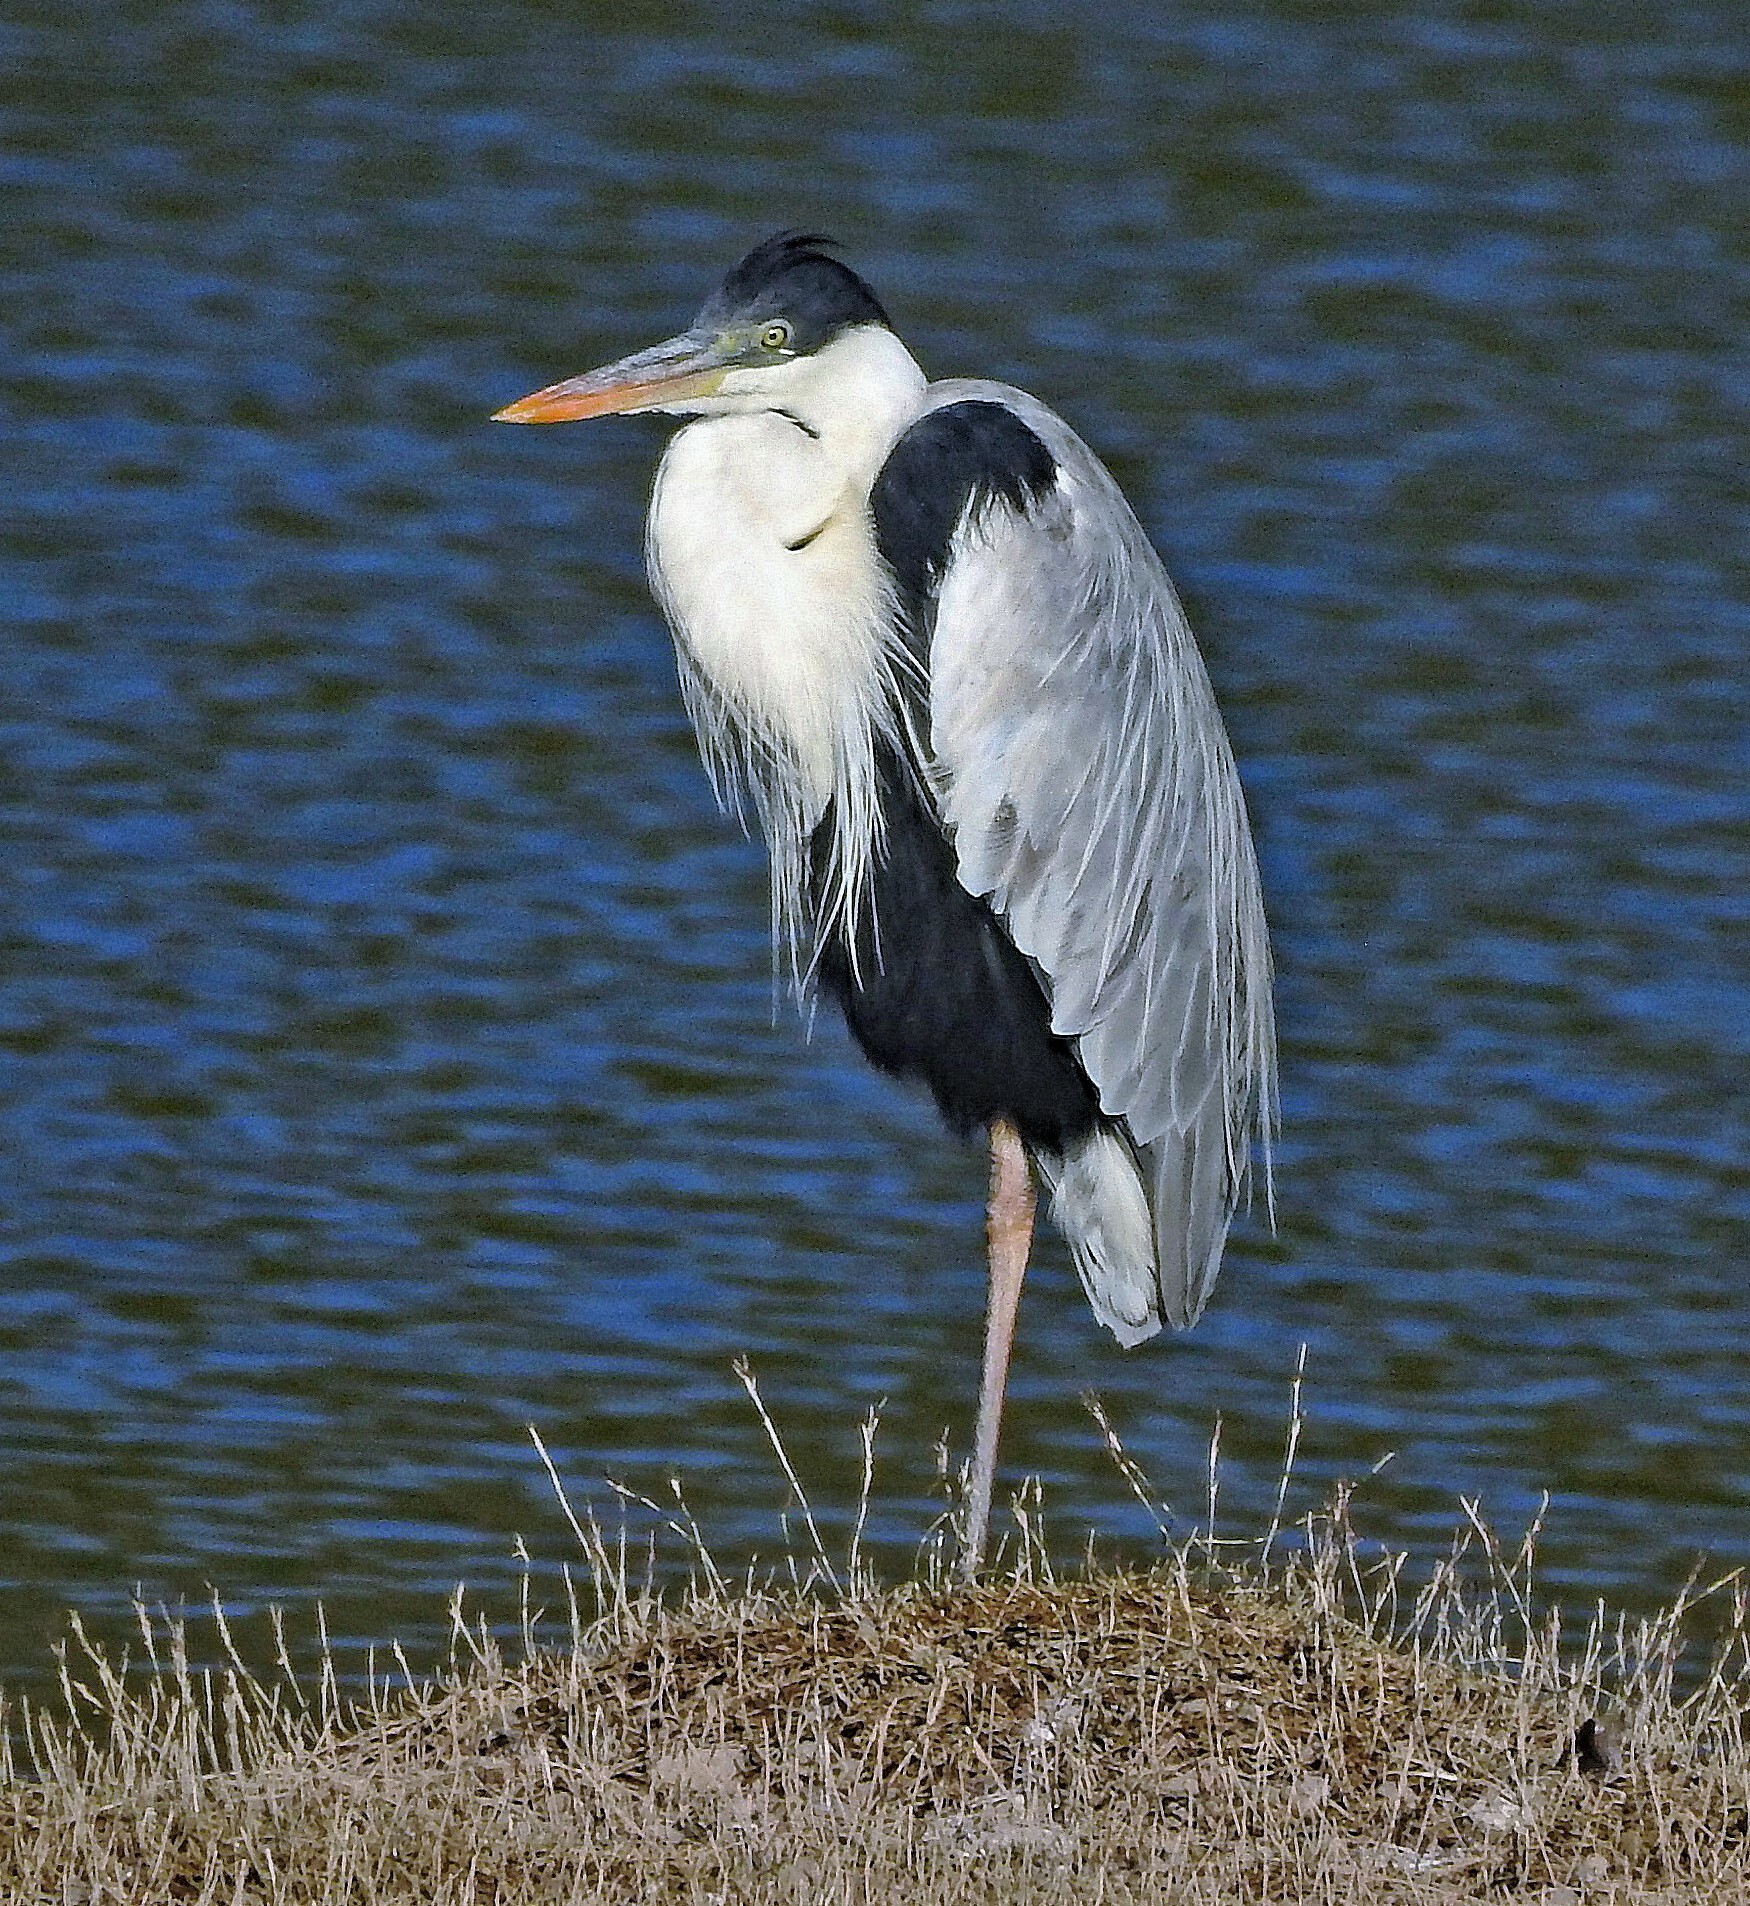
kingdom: Animalia
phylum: Chordata
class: Aves
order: Pelecaniformes
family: Ardeidae
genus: Ardea
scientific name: Ardea cocoi
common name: Cocoi heron
